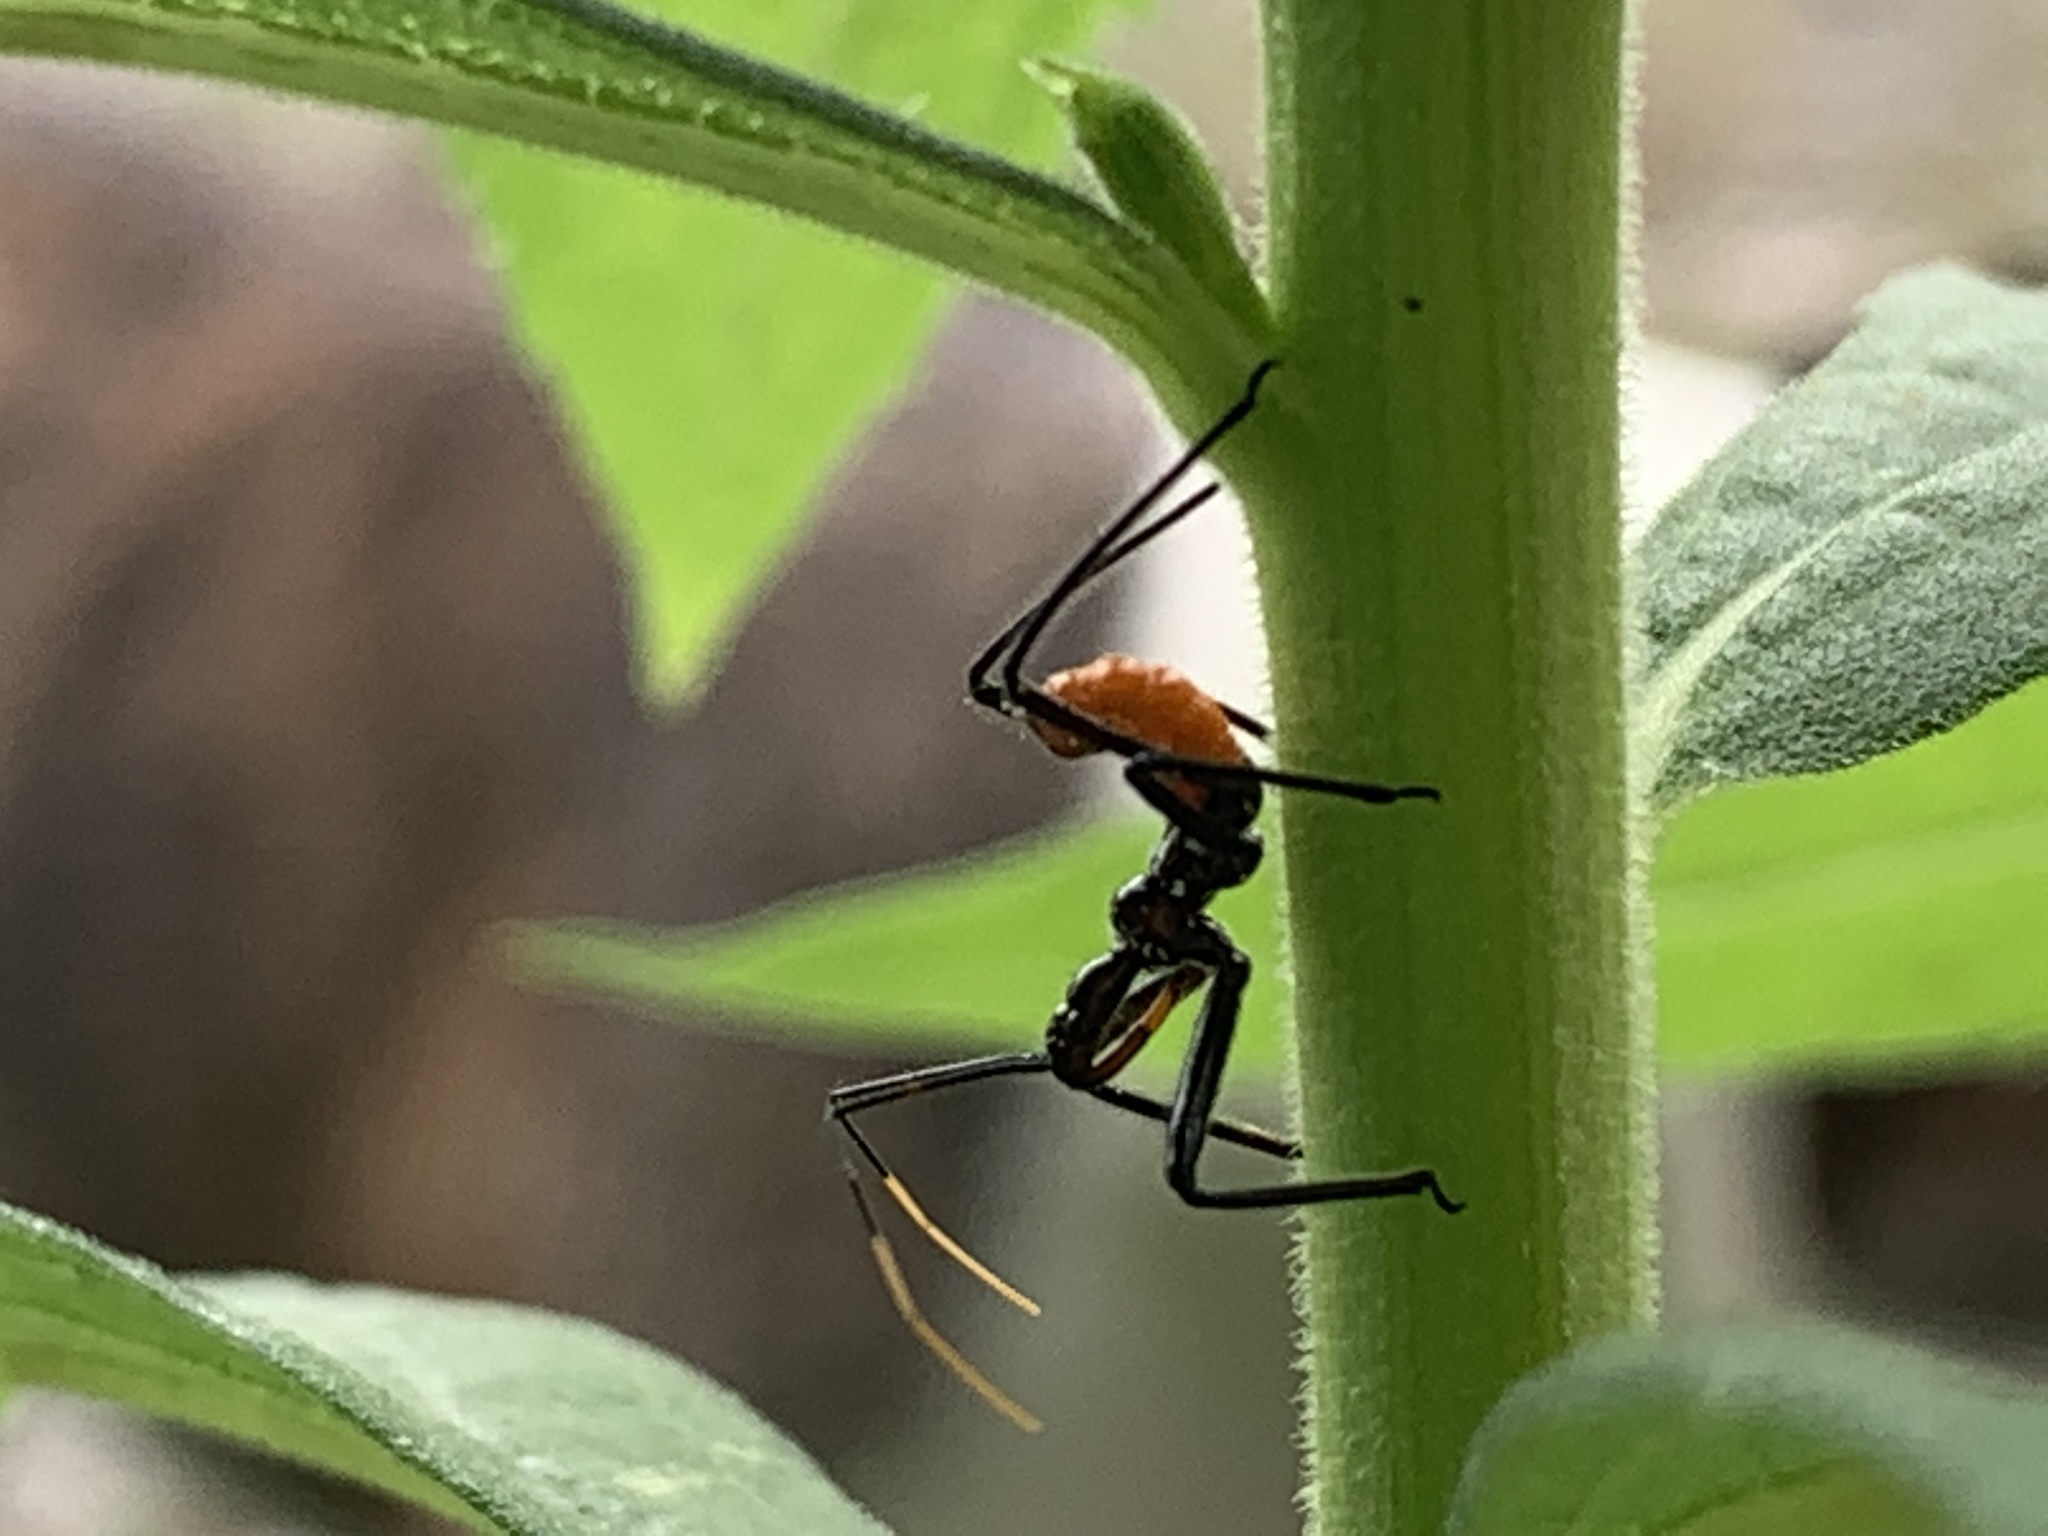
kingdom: Animalia
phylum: Arthropoda
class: Insecta
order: Hemiptera
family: Reduviidae
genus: Arilus
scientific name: Arilus cristatus
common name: North american wheel bug
